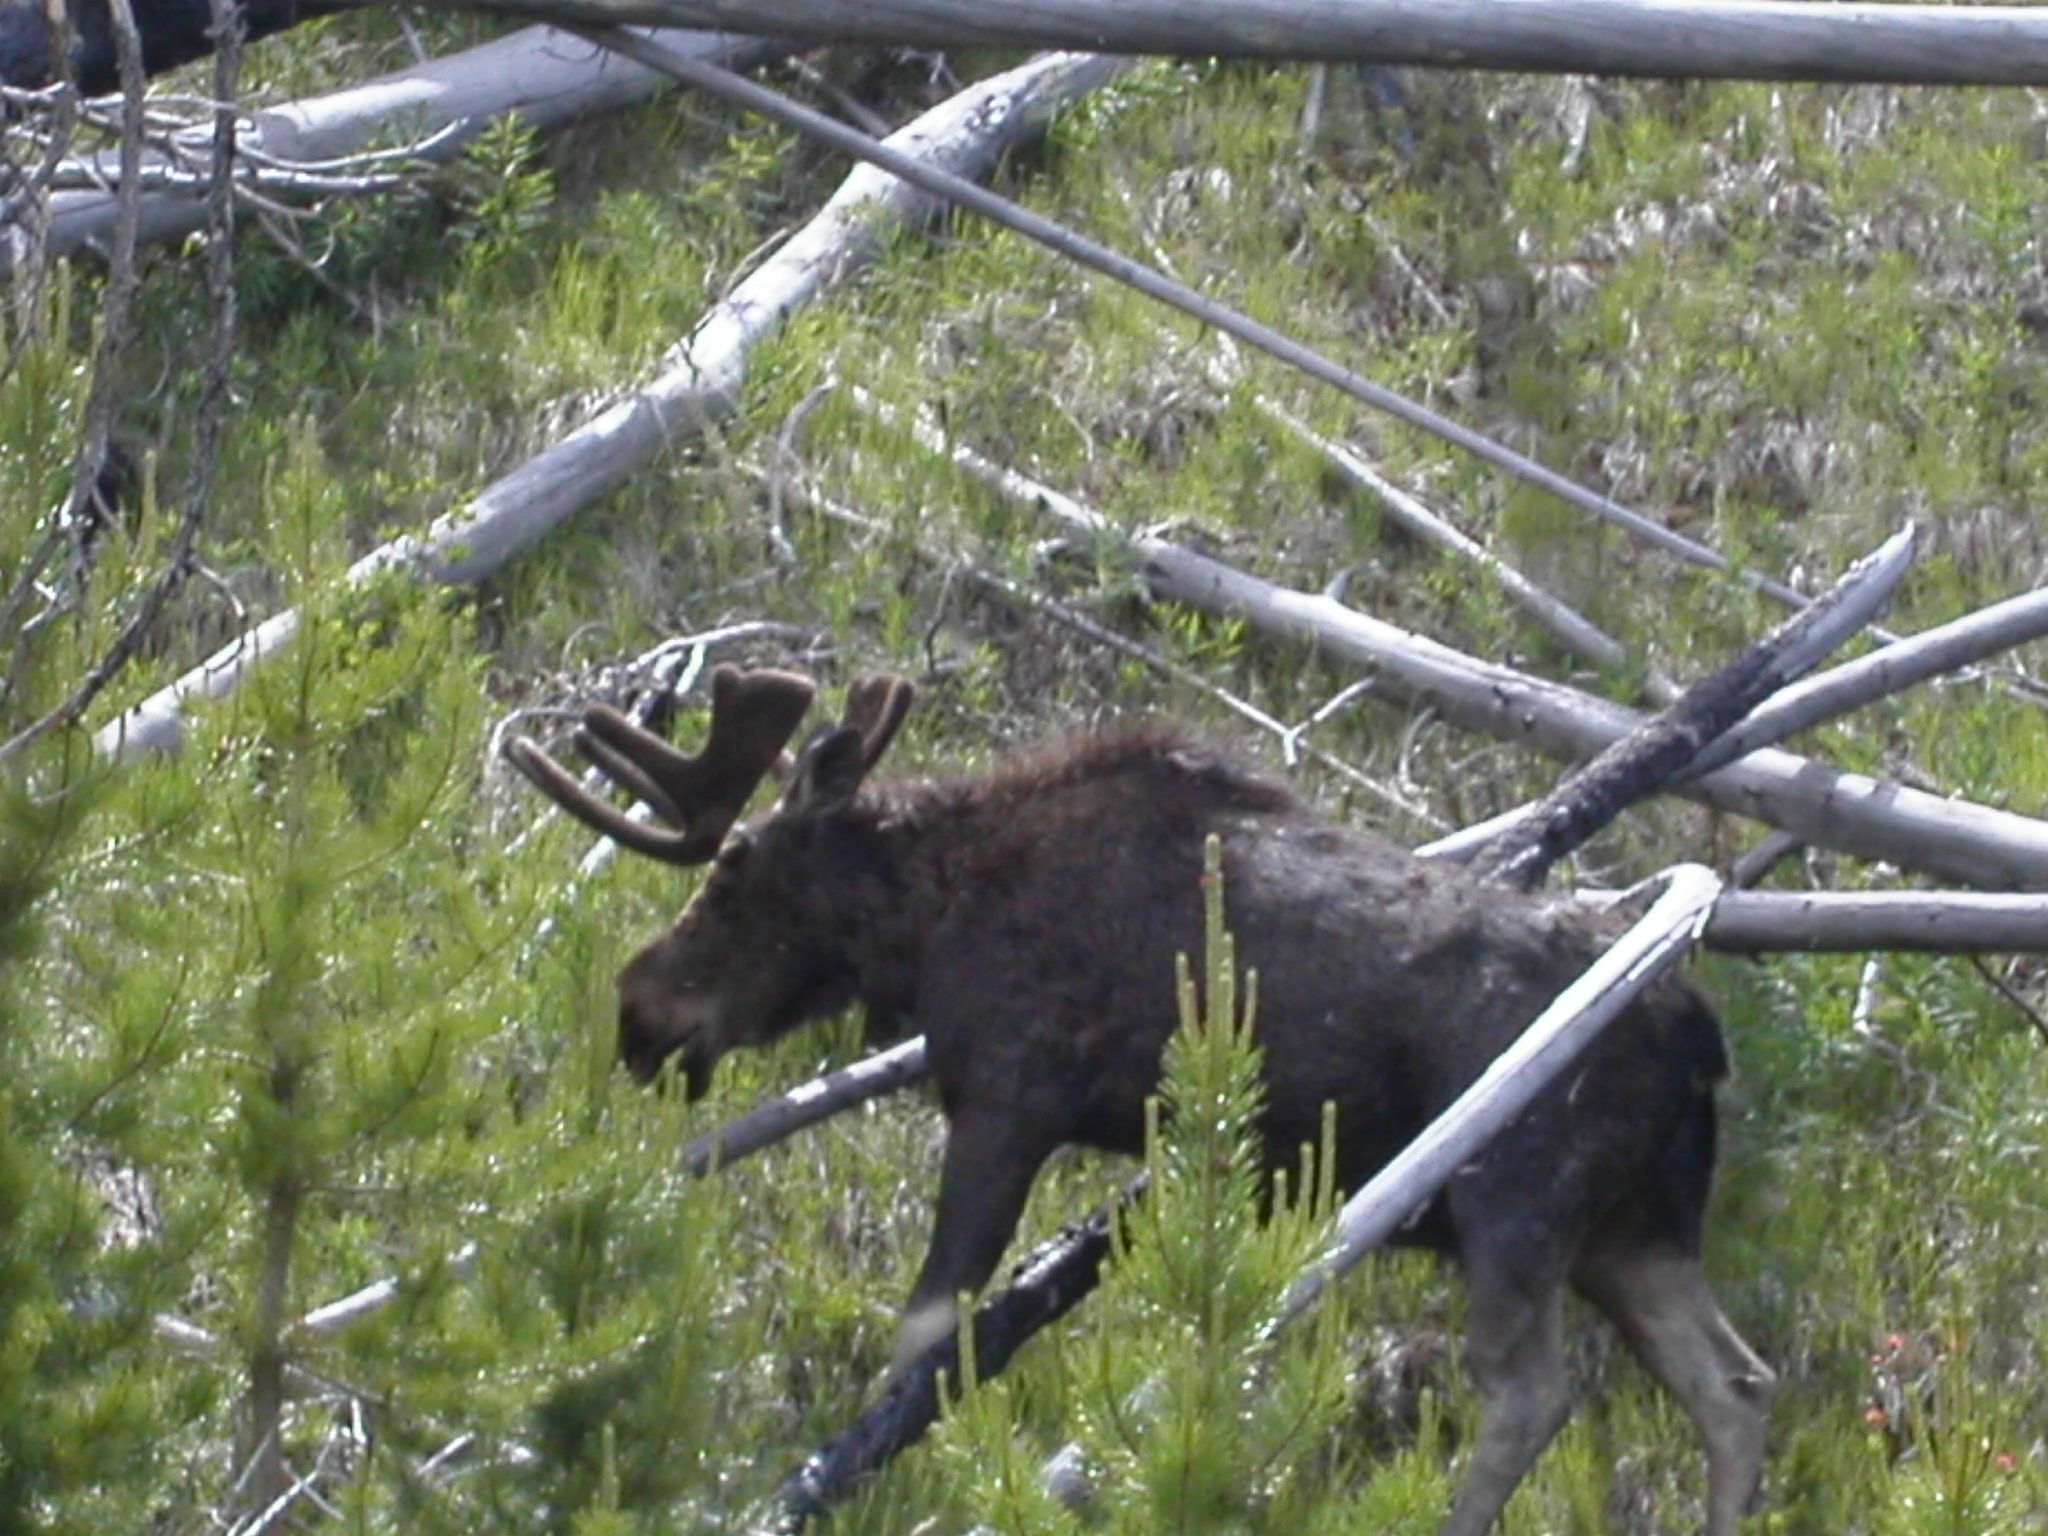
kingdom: Animalia
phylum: Chordata
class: Mammalia
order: Artiodactyla
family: Cervidae
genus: Alces
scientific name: Alces alces
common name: Moose
